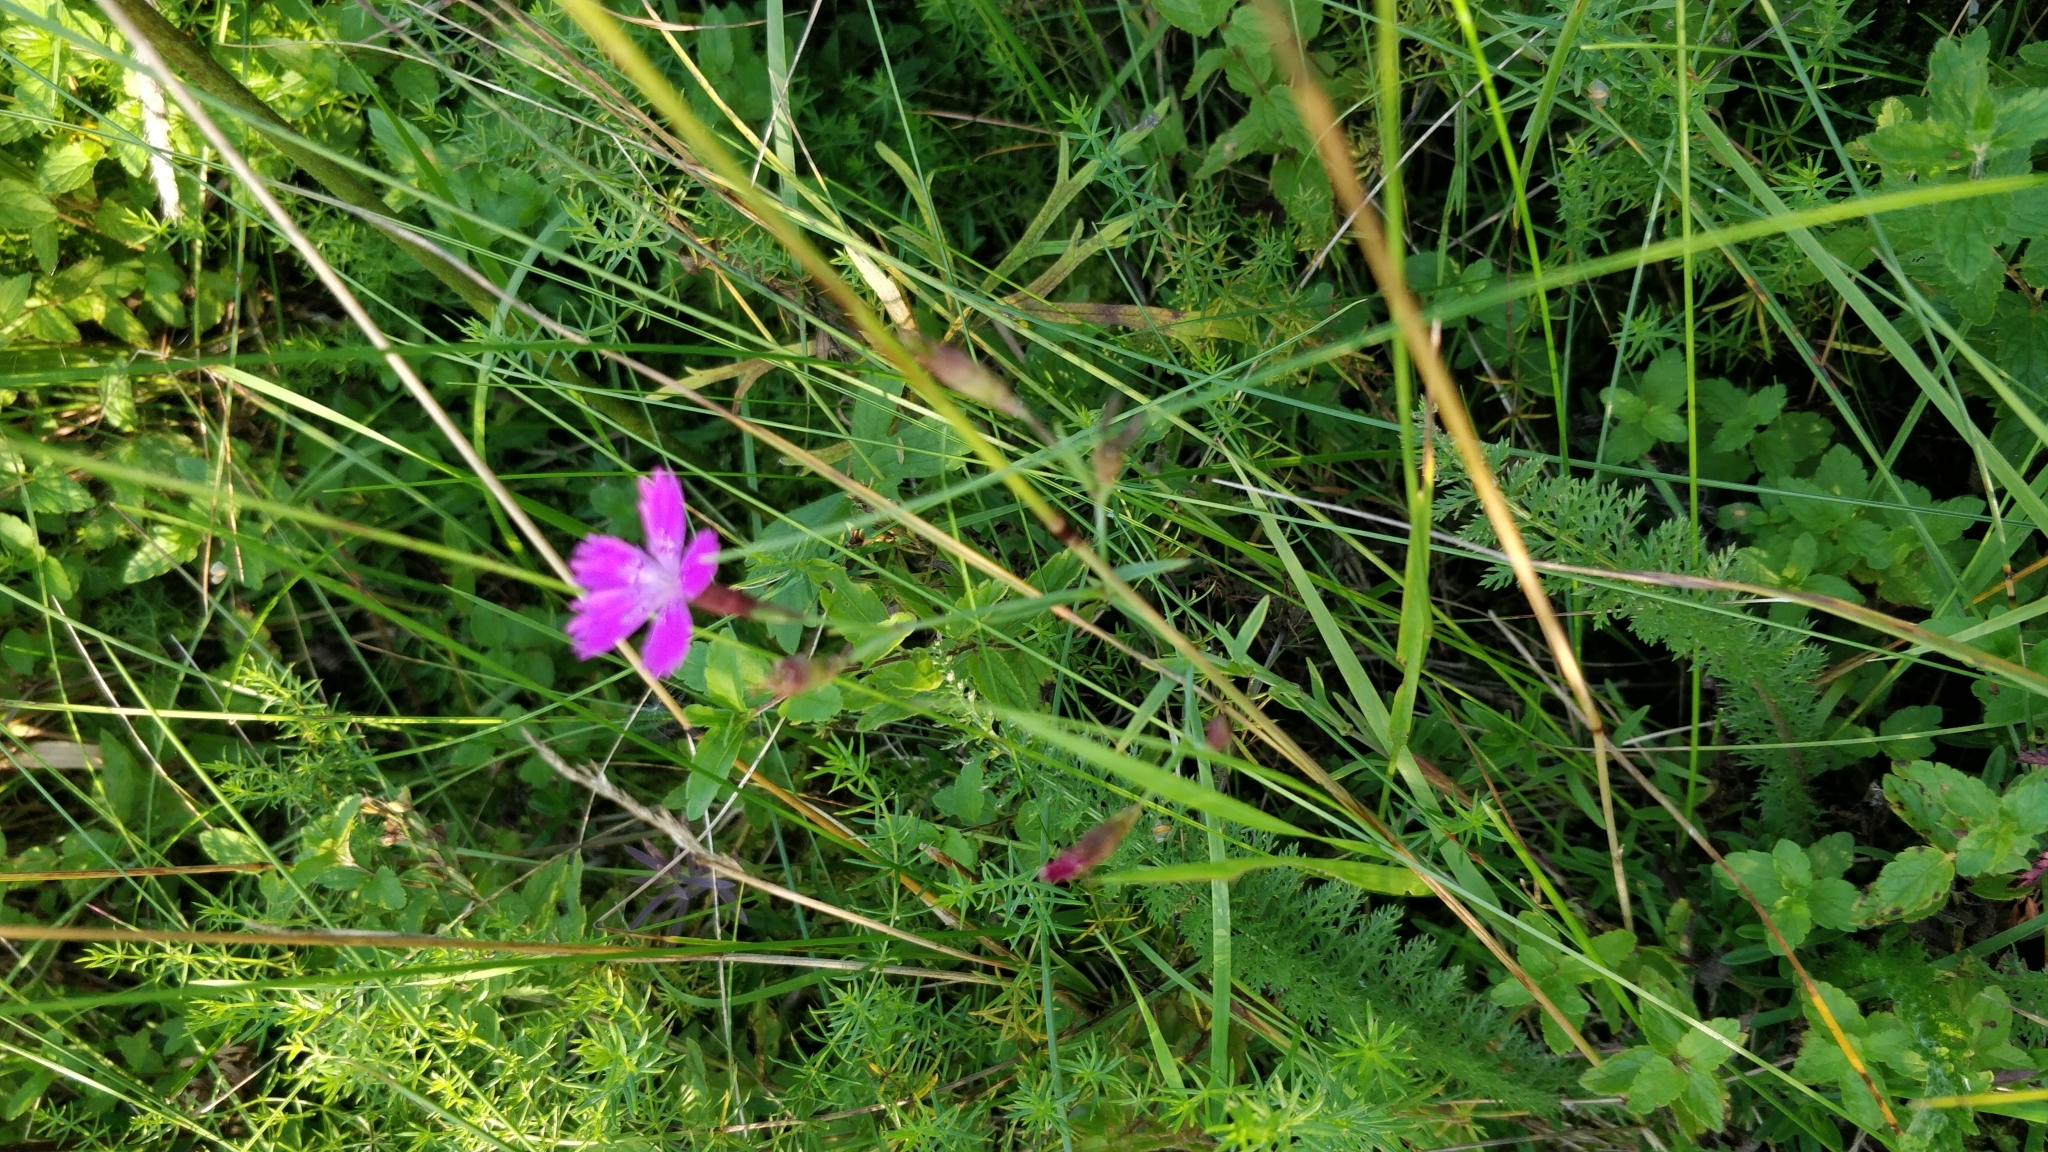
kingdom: Plantae
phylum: Tracheophyta
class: Magnoliopsida
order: Caryophyllales
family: Caryophyllaceae
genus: Dianthus
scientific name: Dianthus deltoides
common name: Maiden pink
